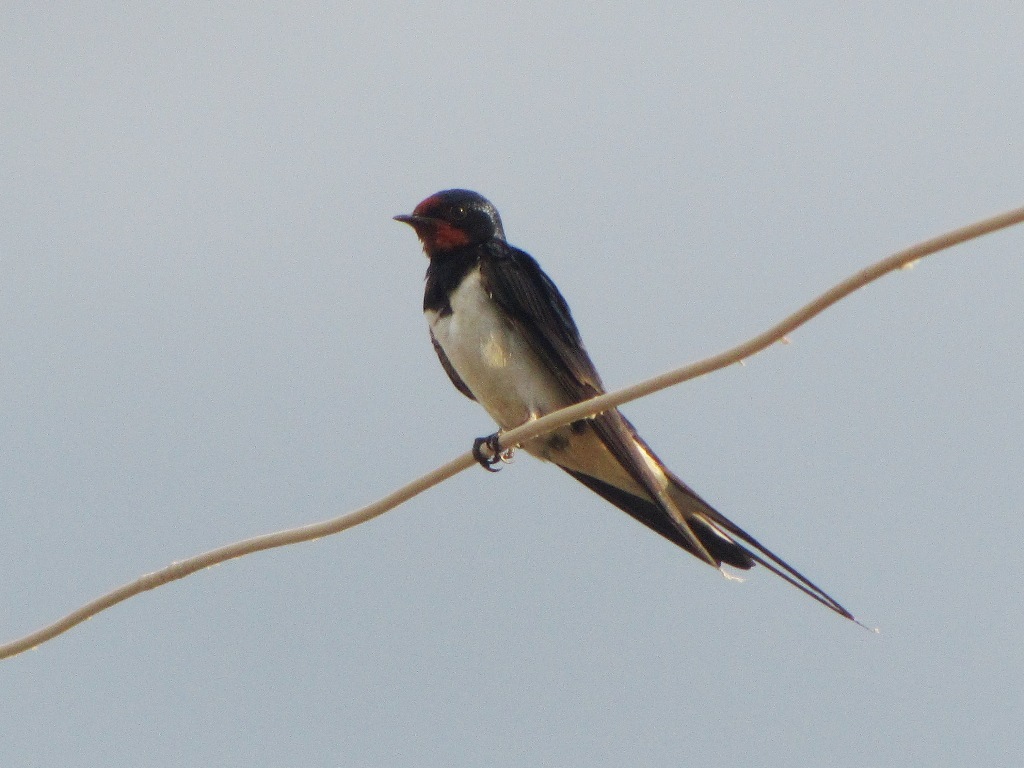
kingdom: Animalia
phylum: Chordata
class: Aves
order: Passeriformes
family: Hirundinidae
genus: Hirundo
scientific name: Hirundo rustica
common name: Barn swallow
